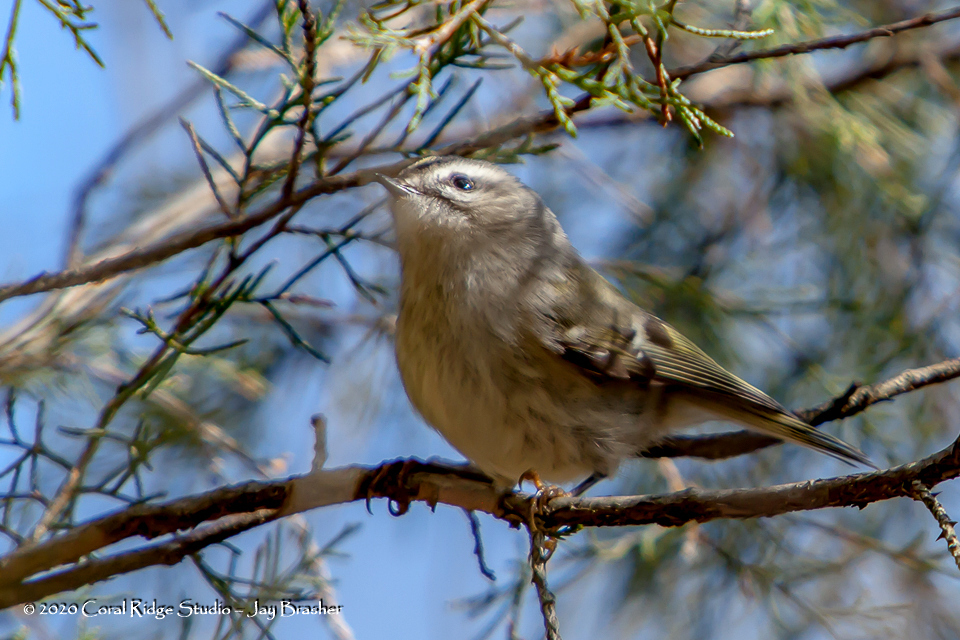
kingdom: Animalia
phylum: Chordata
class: Aves
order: Passeriformes
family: Regulidae
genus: Regulus
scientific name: Regulus satrapa
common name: Golden-crowned kinglet
